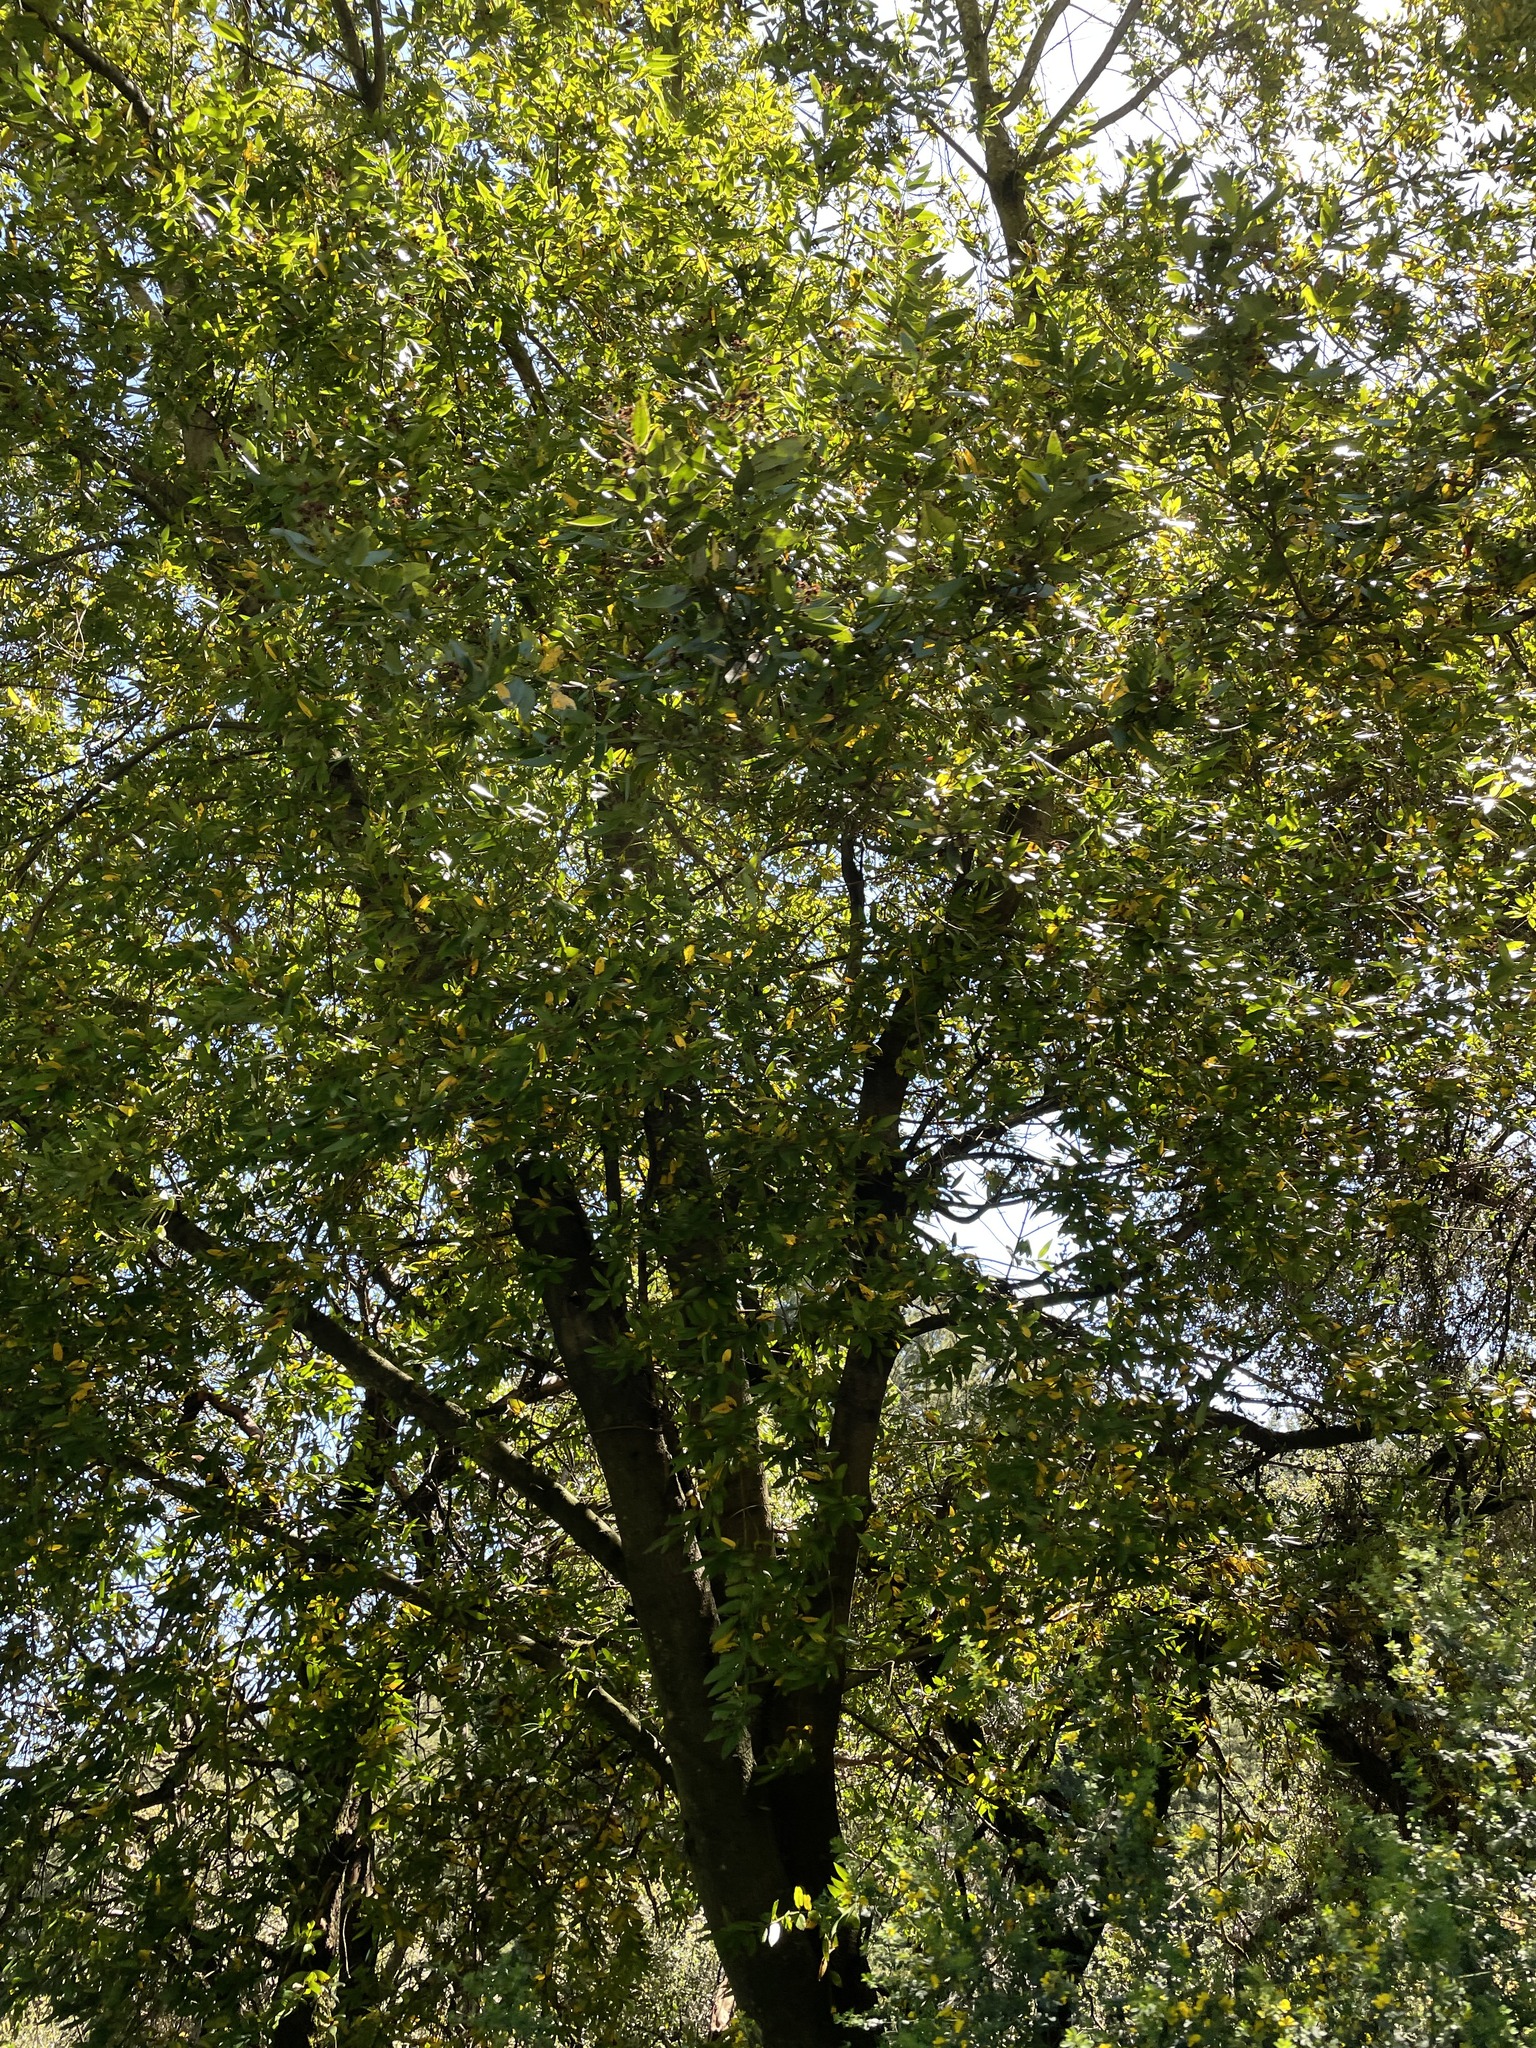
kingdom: Plantae
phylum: Tracheophyta
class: Magnoliopsida
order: Laurales
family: Lauraceae
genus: Umbellularia
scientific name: Umbellularia californica
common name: California bay
